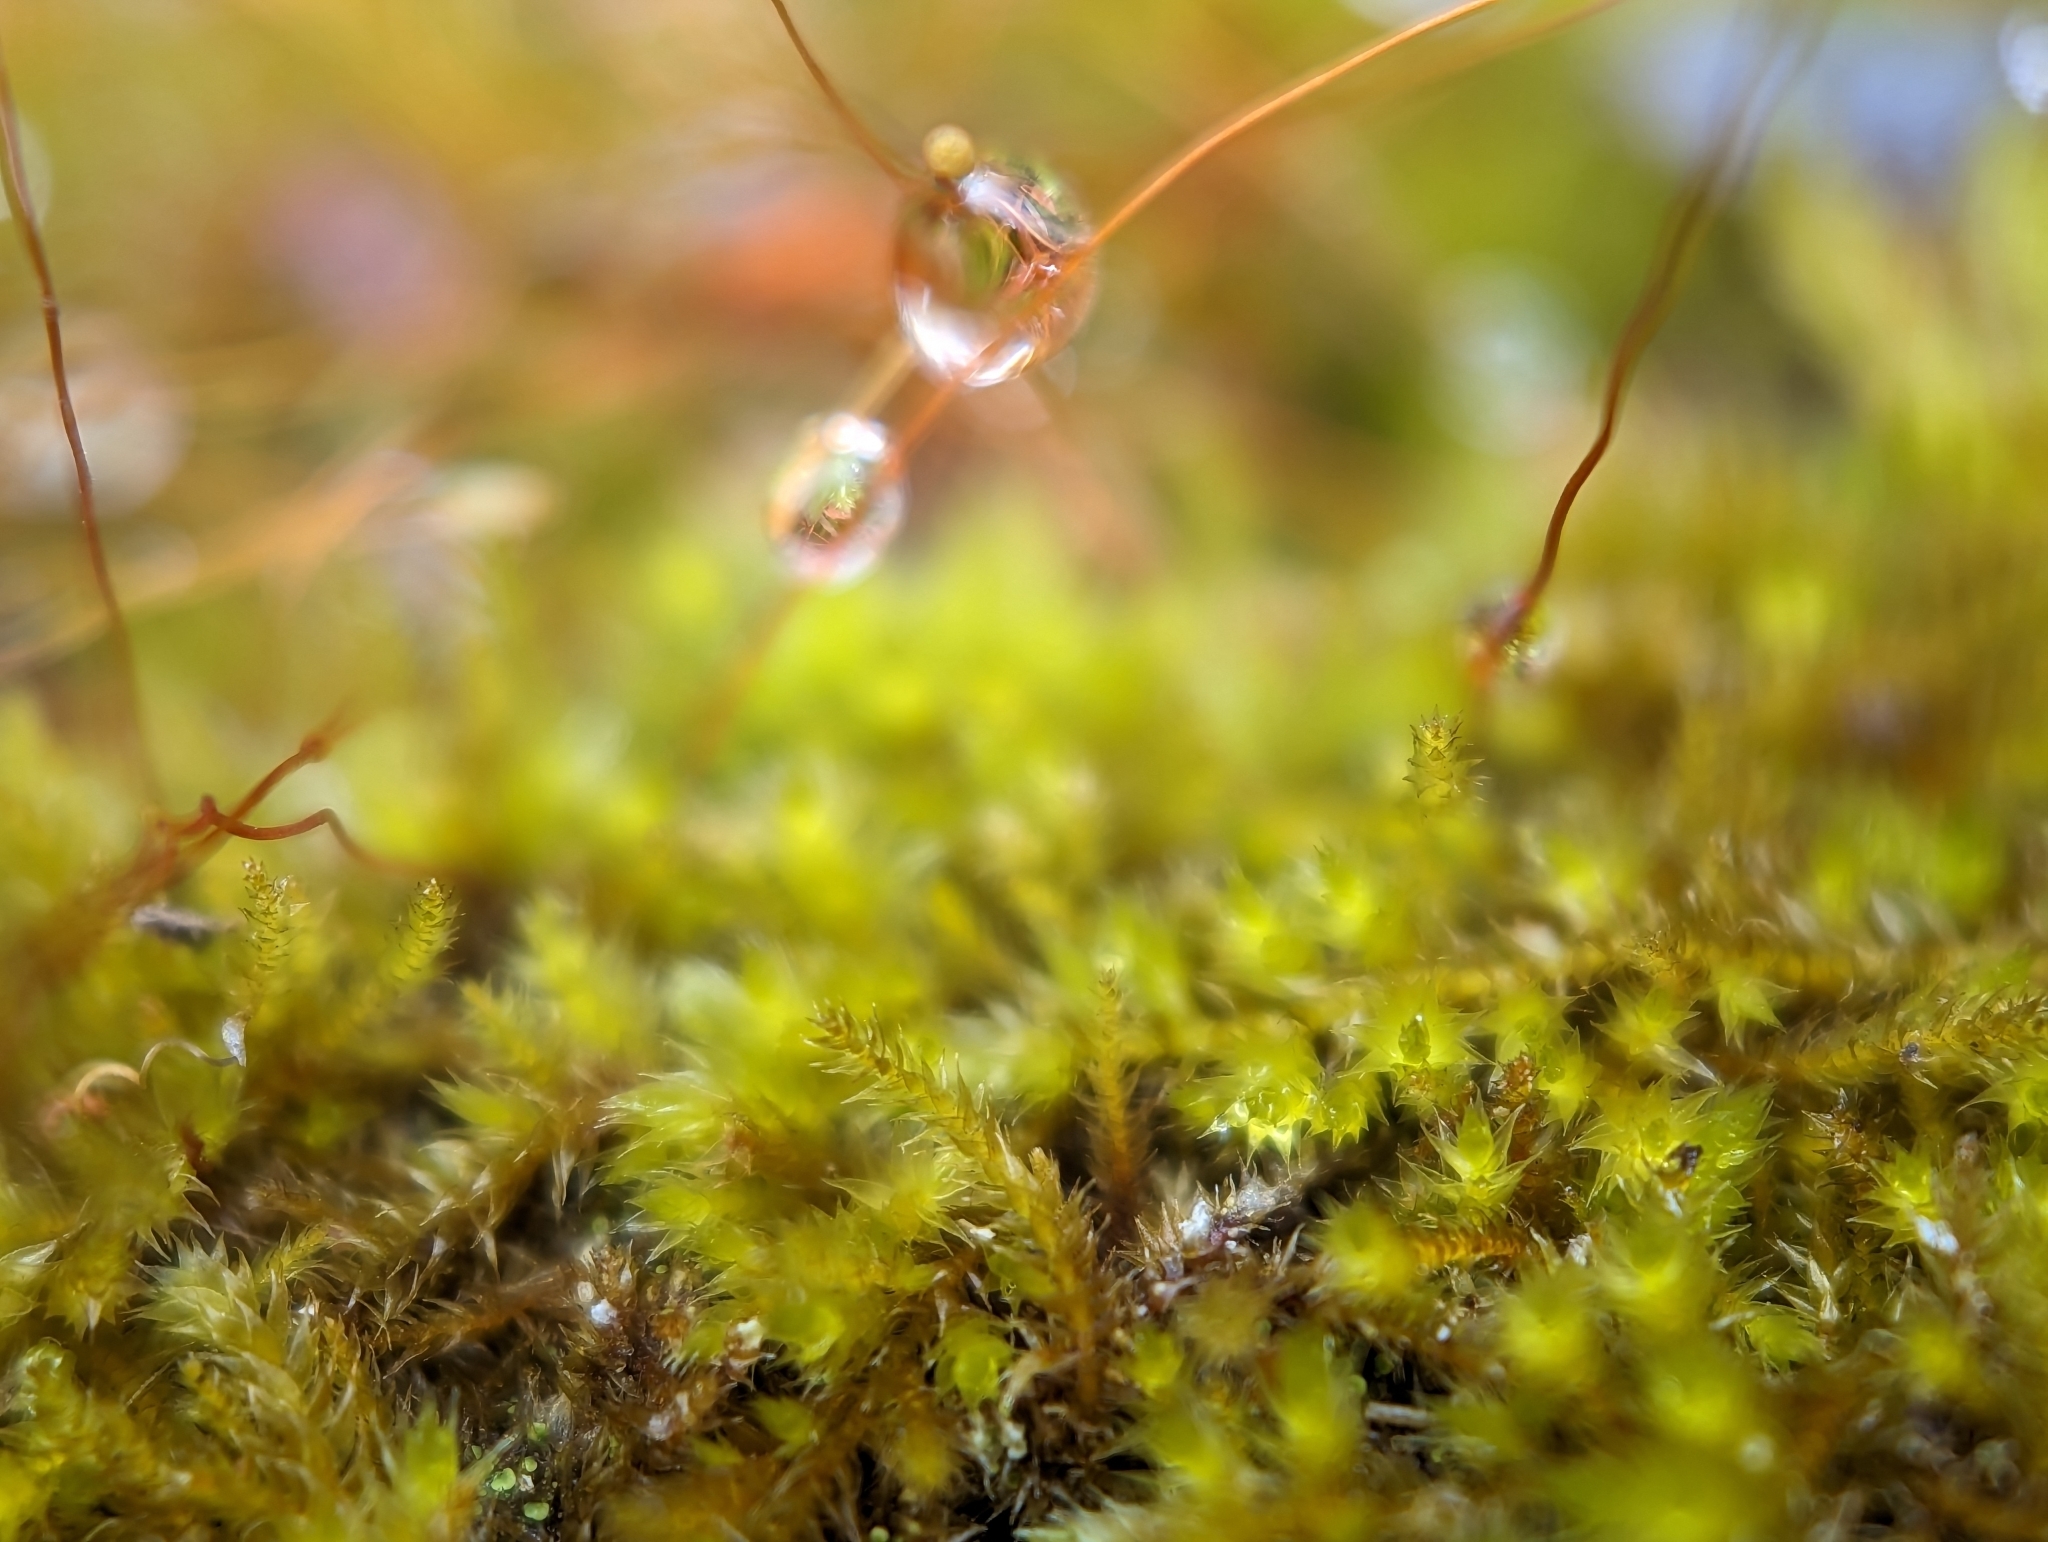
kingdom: Plantae
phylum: Bryophyta
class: Bryopsida
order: Hypnales
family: Pylaisiadelphaceae
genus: Platygyrium
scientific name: Platygyrium repens
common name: Flat-brocade moss
